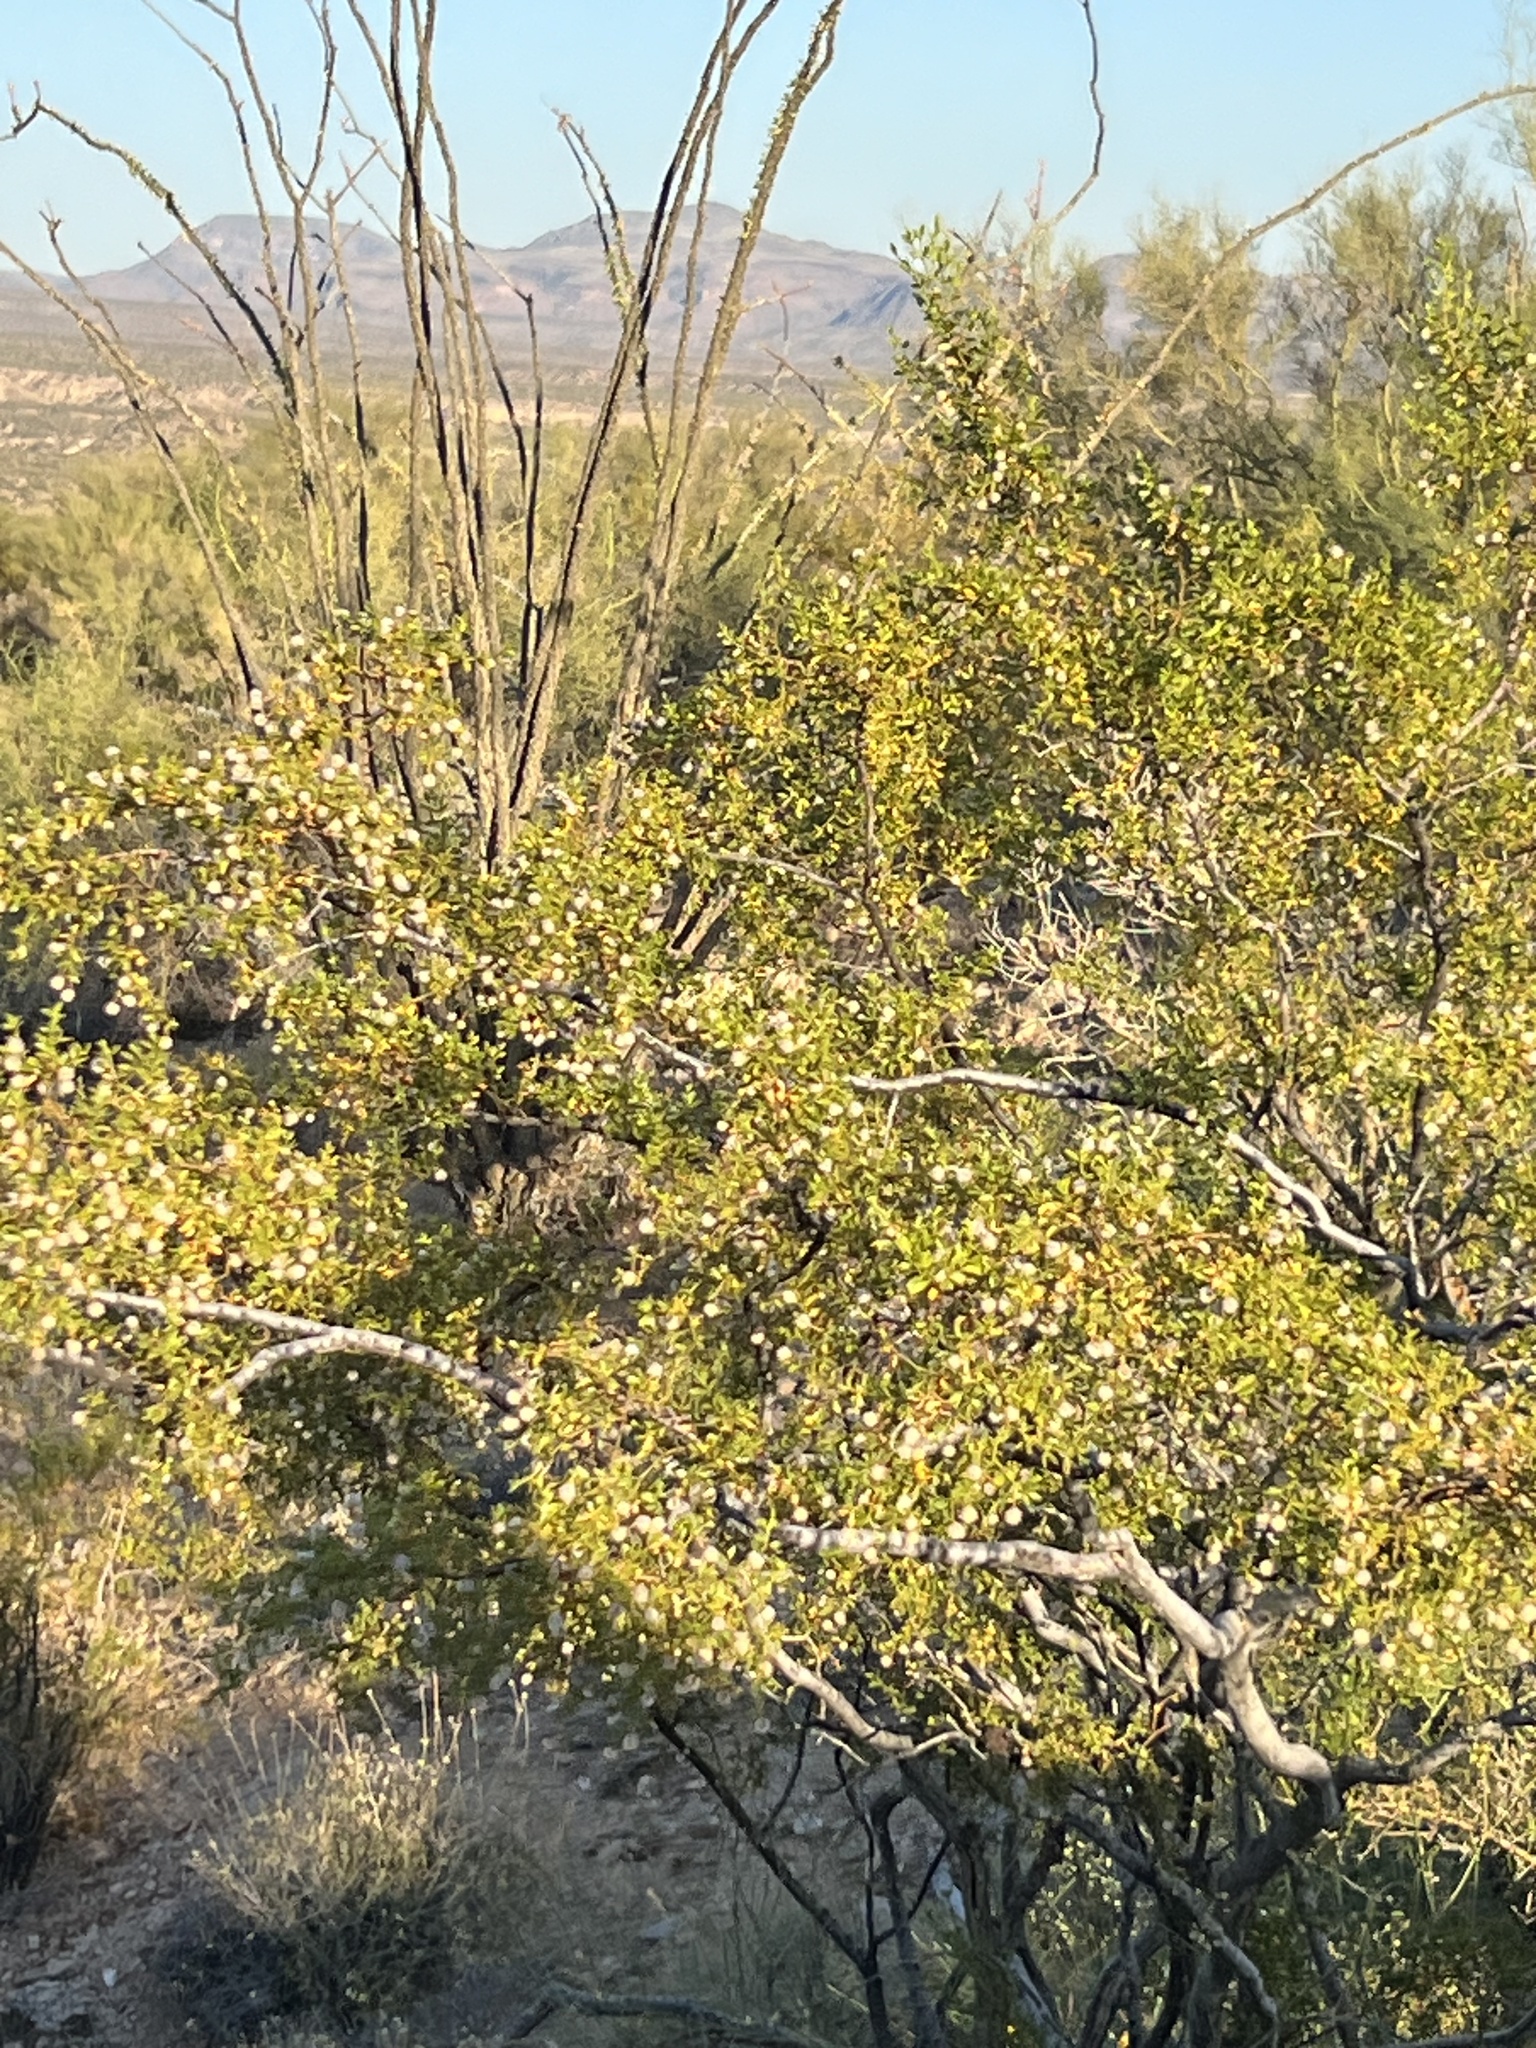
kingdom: Plantae
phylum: Tracheophyta
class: Magnoliopsida
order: Zygophyllales
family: Zygophyllaceae
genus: Larrea
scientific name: Larrea tridentata
